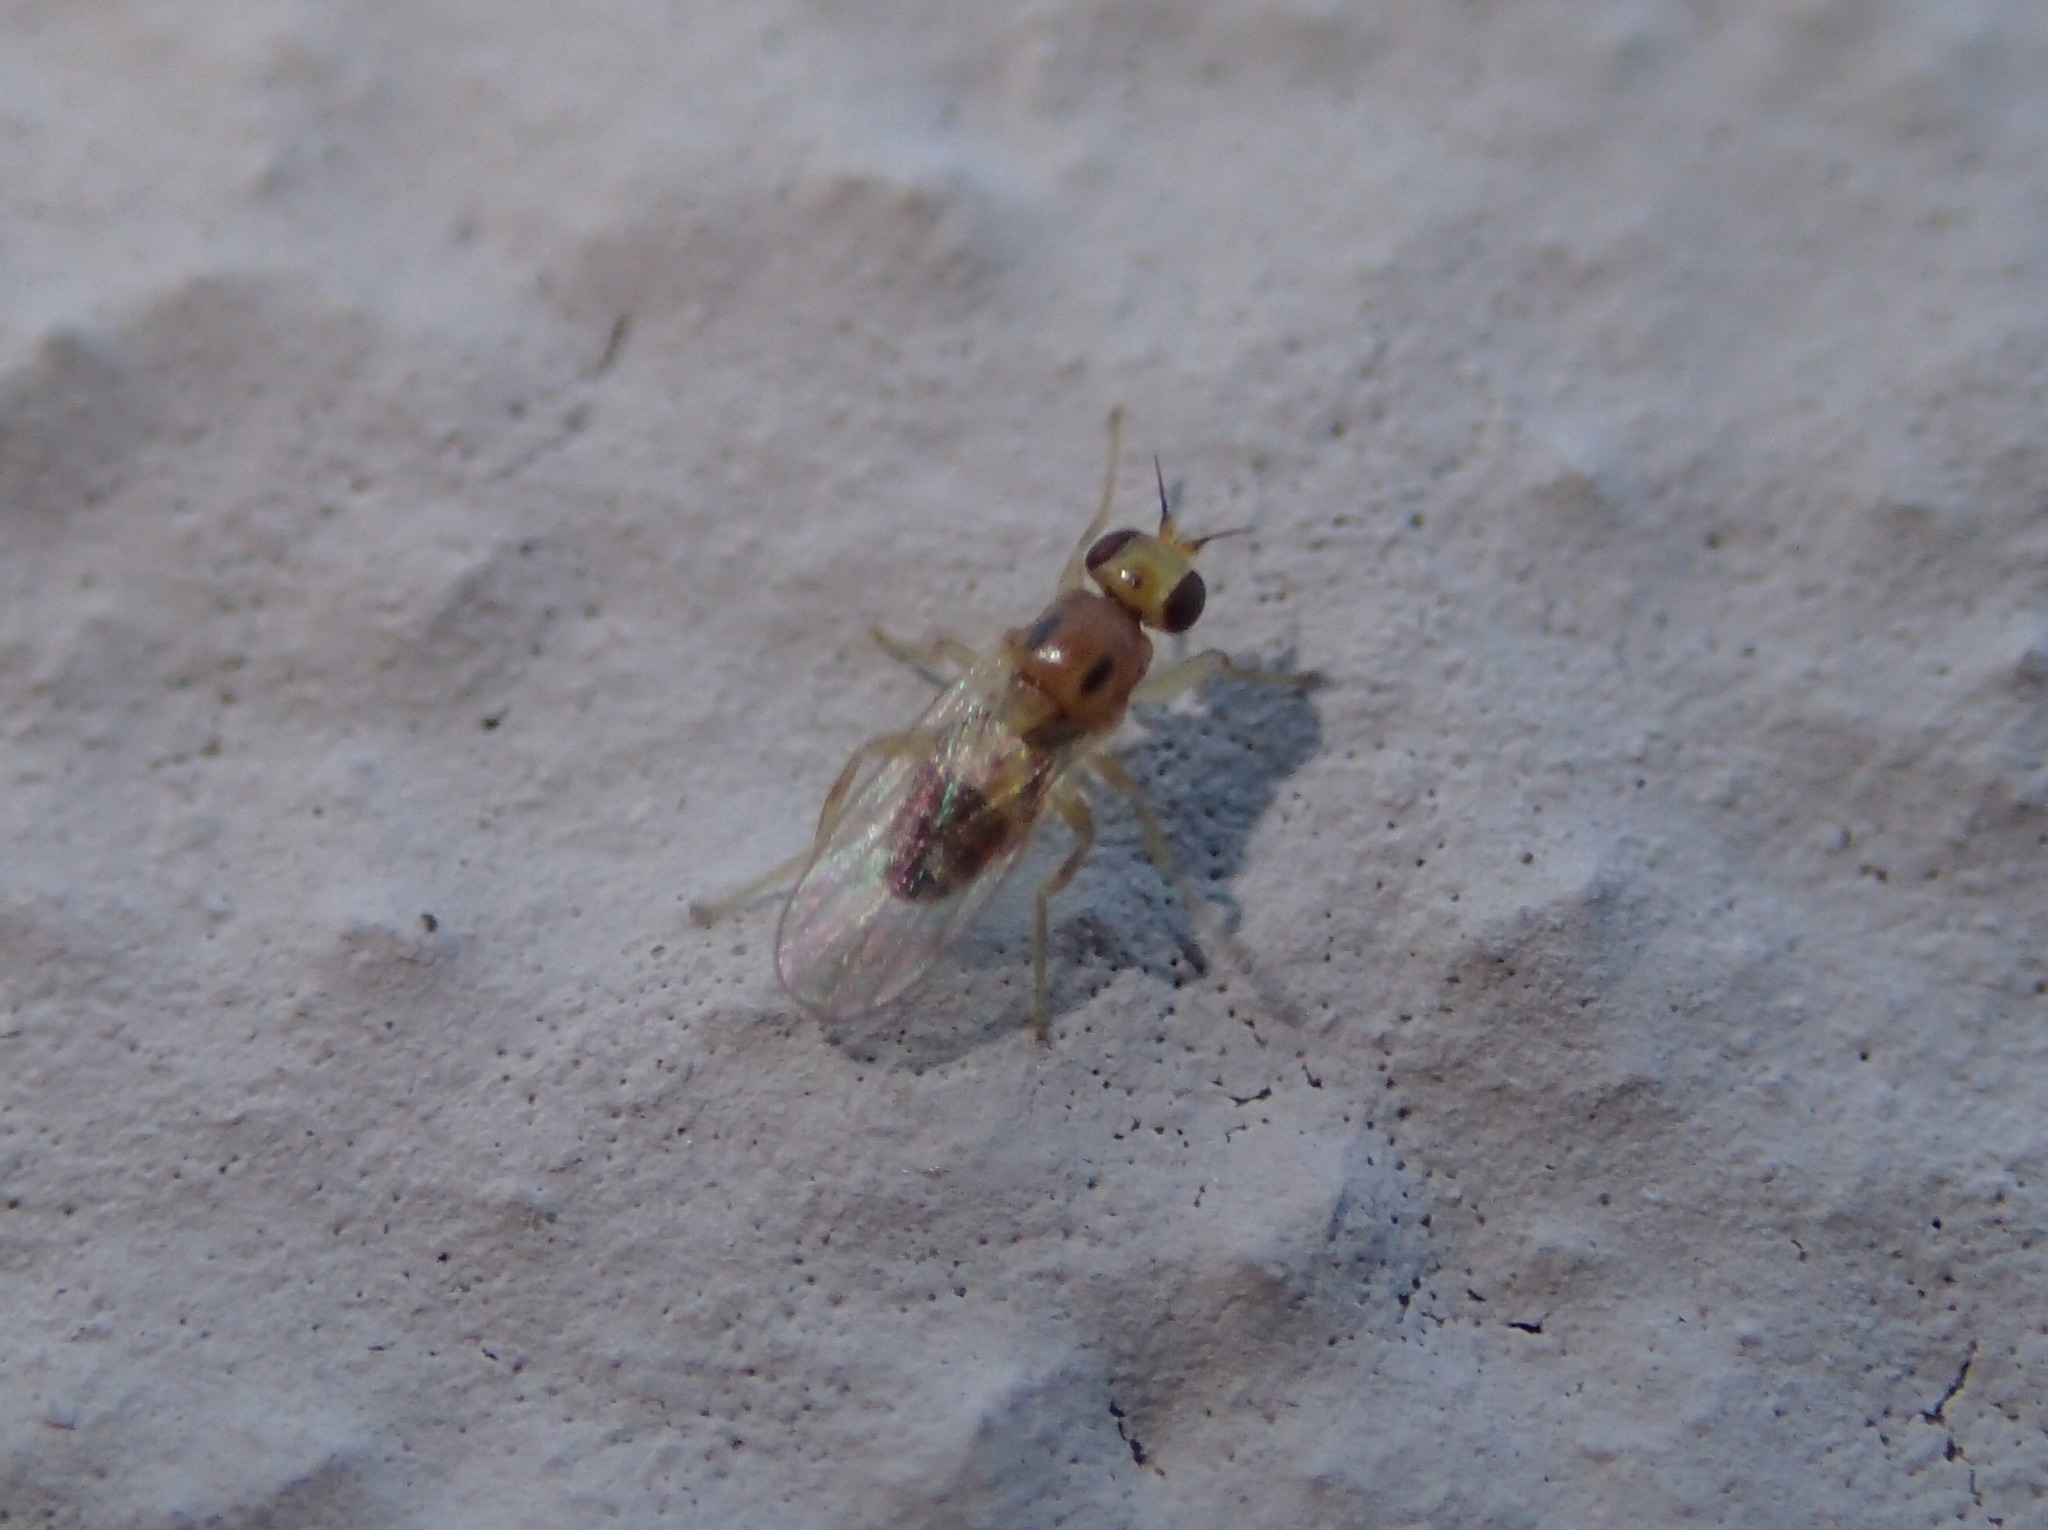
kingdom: Animalia
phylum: Arthropoda
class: Insecta
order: Diptera
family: Chloropidae
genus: Elachiptera
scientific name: Elachiptera bimaculata
